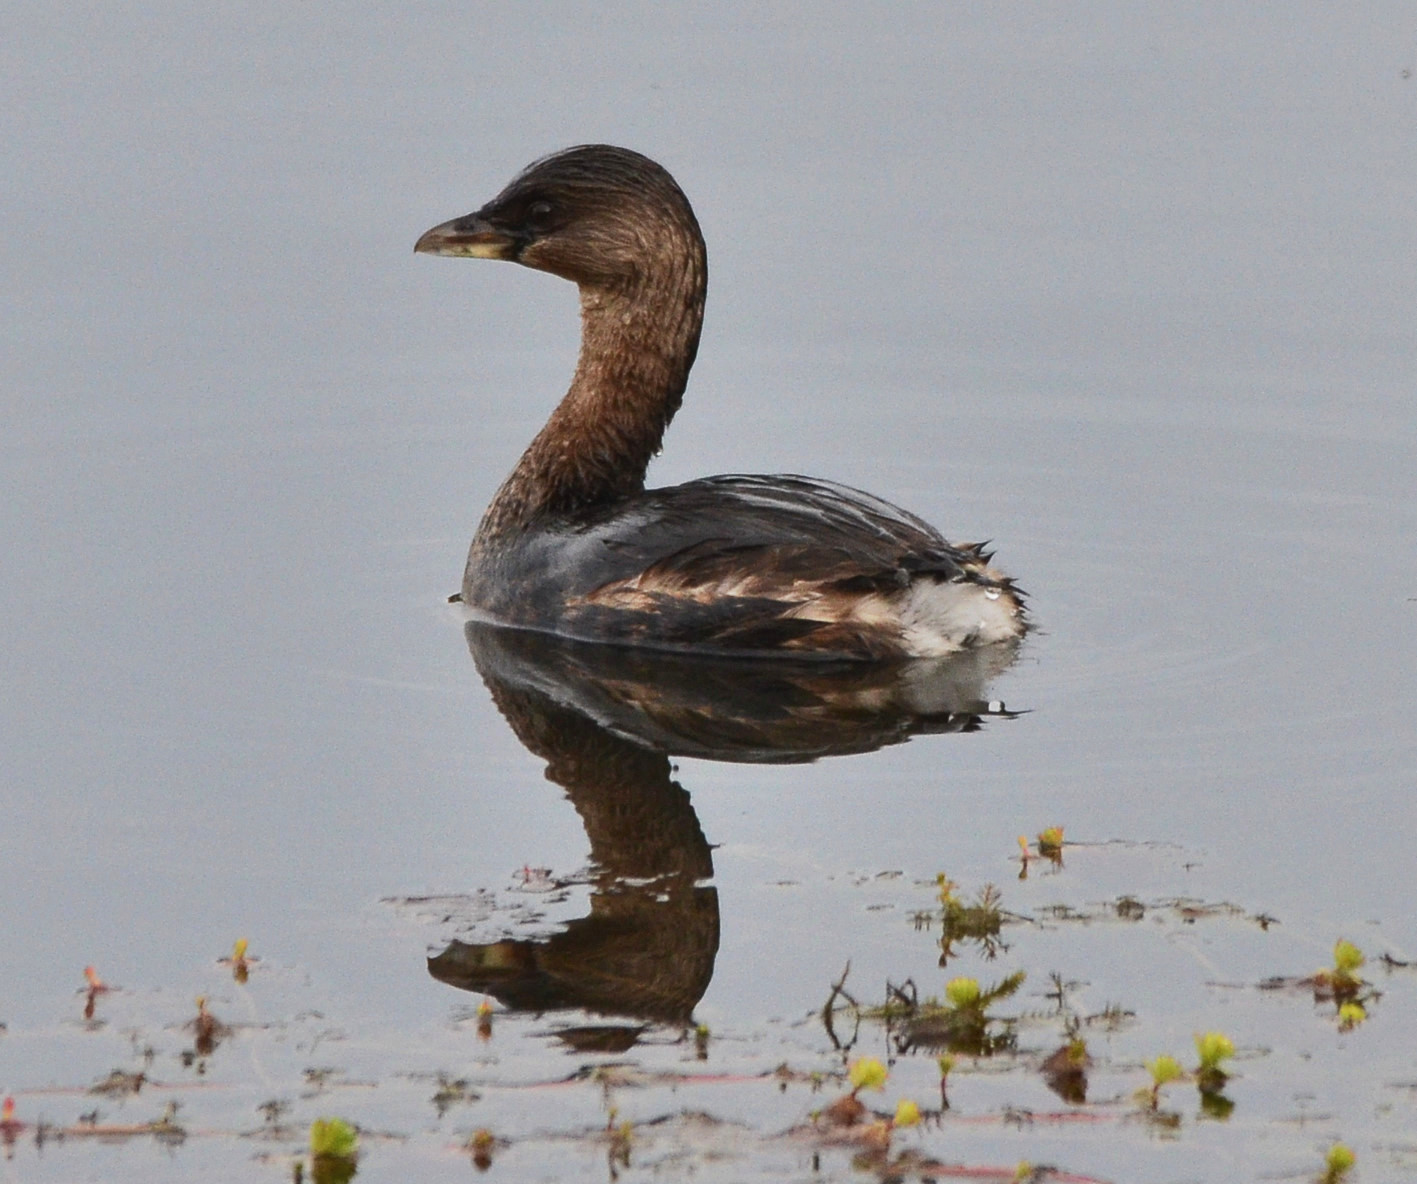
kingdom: Animalia
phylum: Chordata
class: Aves
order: Podicipediformes
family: Podicipedidae
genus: Podilymbus
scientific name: Podilymbus podiceps
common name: Pied-billed grebe
